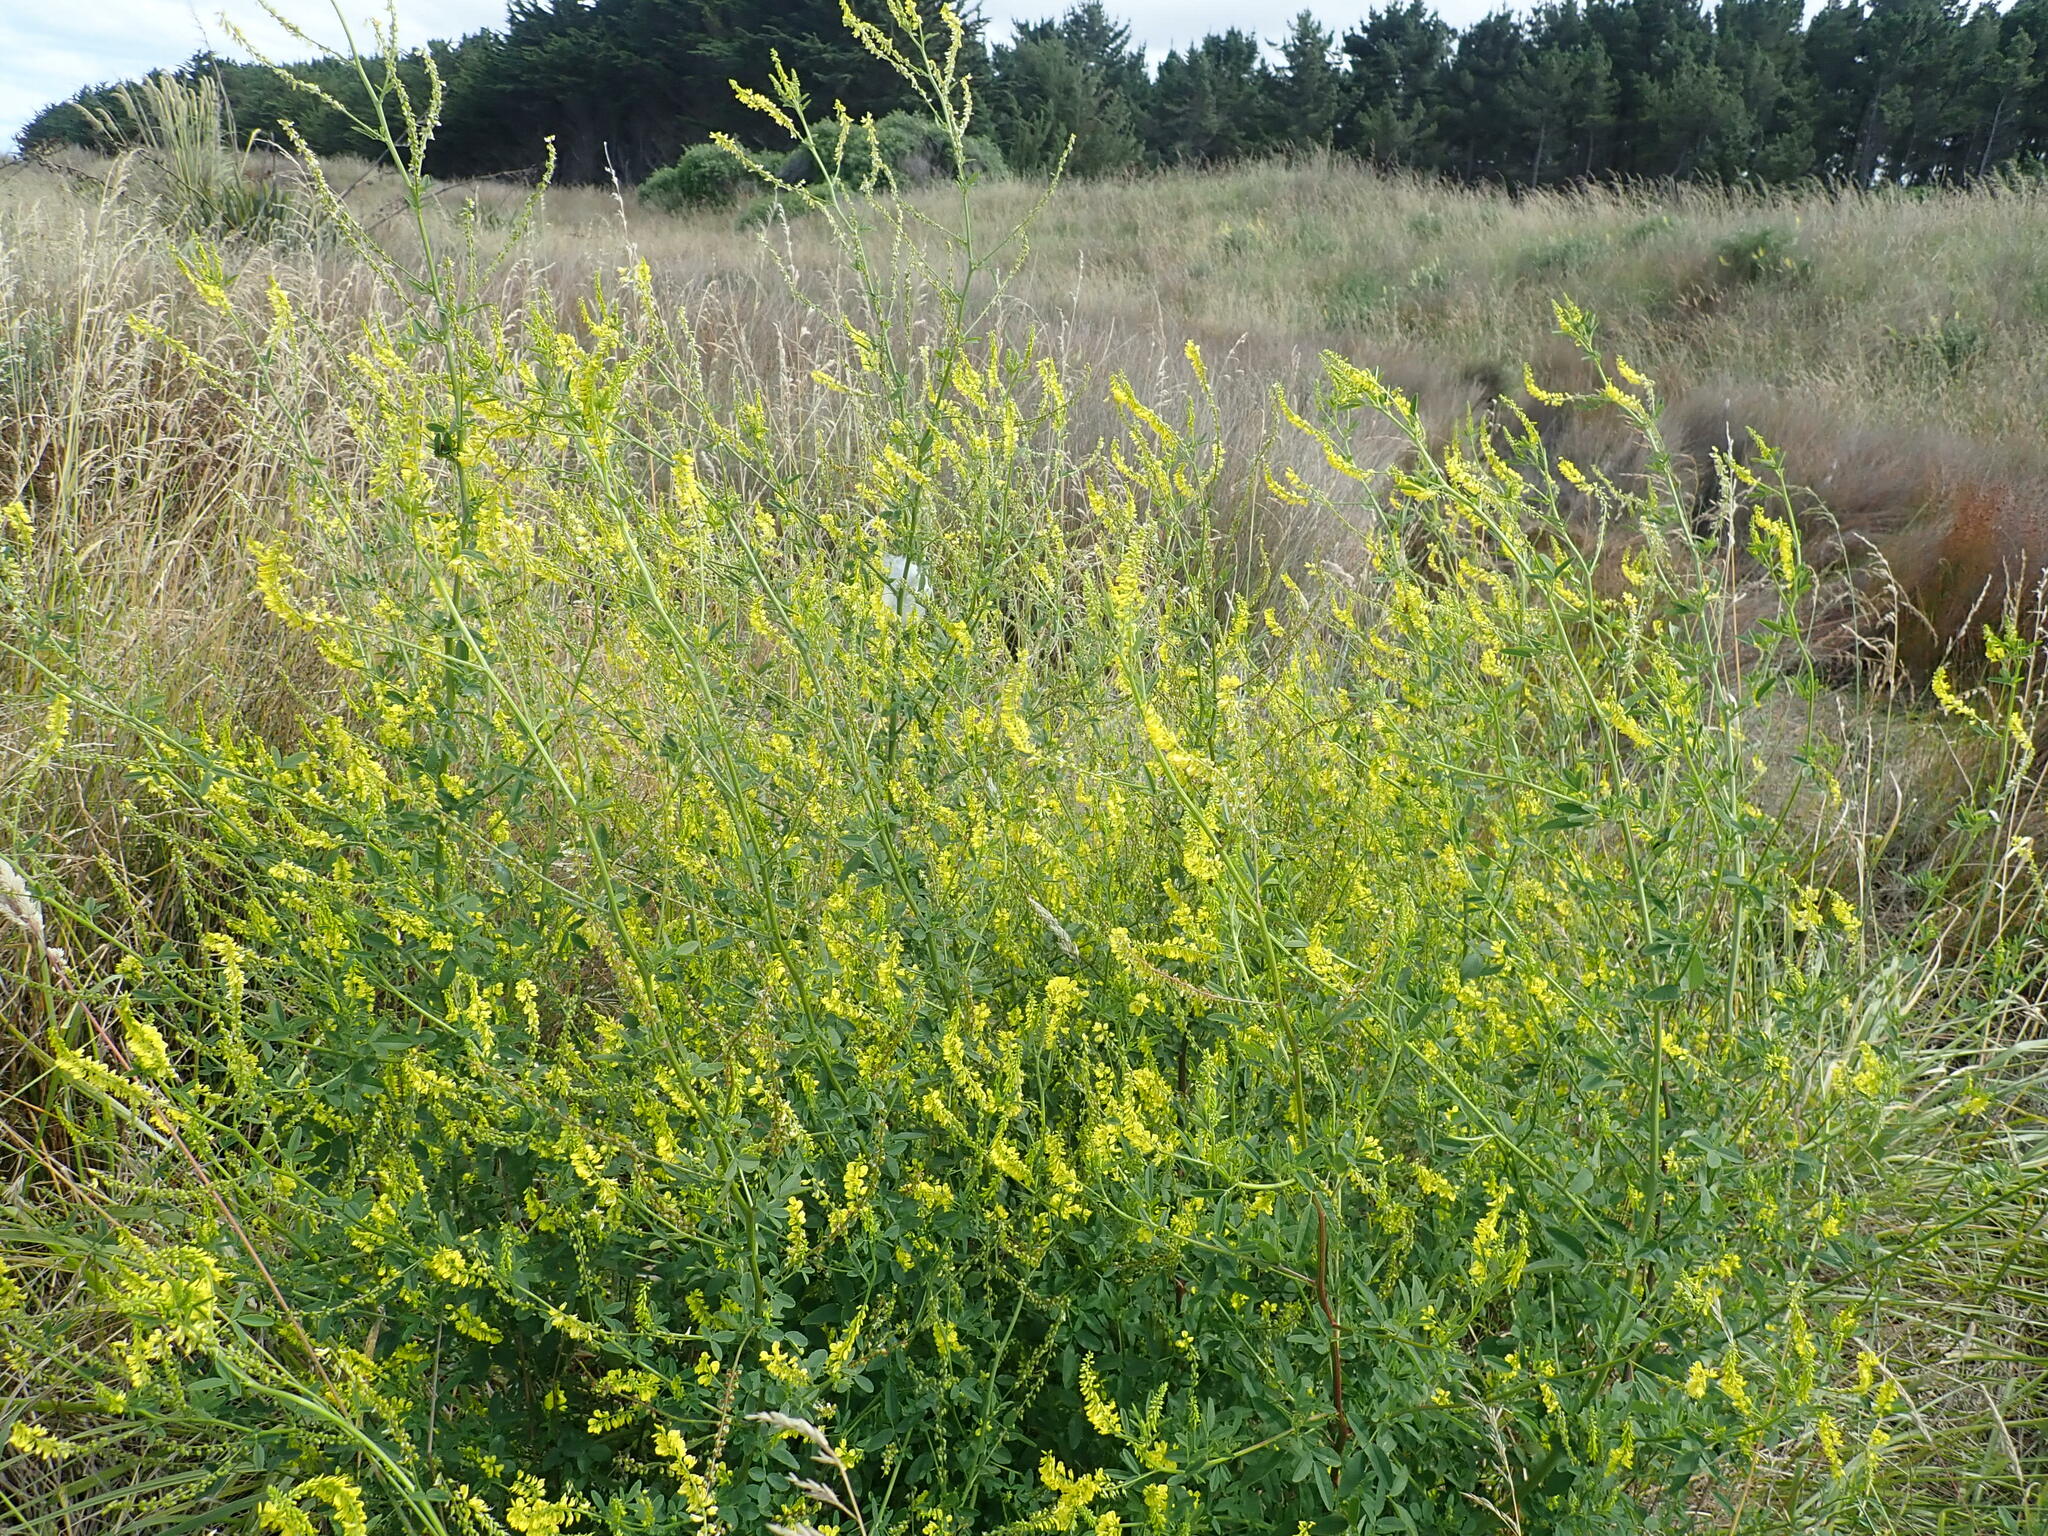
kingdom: Plantae
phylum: Tracheophyta
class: Magnoliopsida
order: Fabales
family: Fabaceae
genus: Melilotus
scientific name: Melilotus officinalis
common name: Sweetclover
